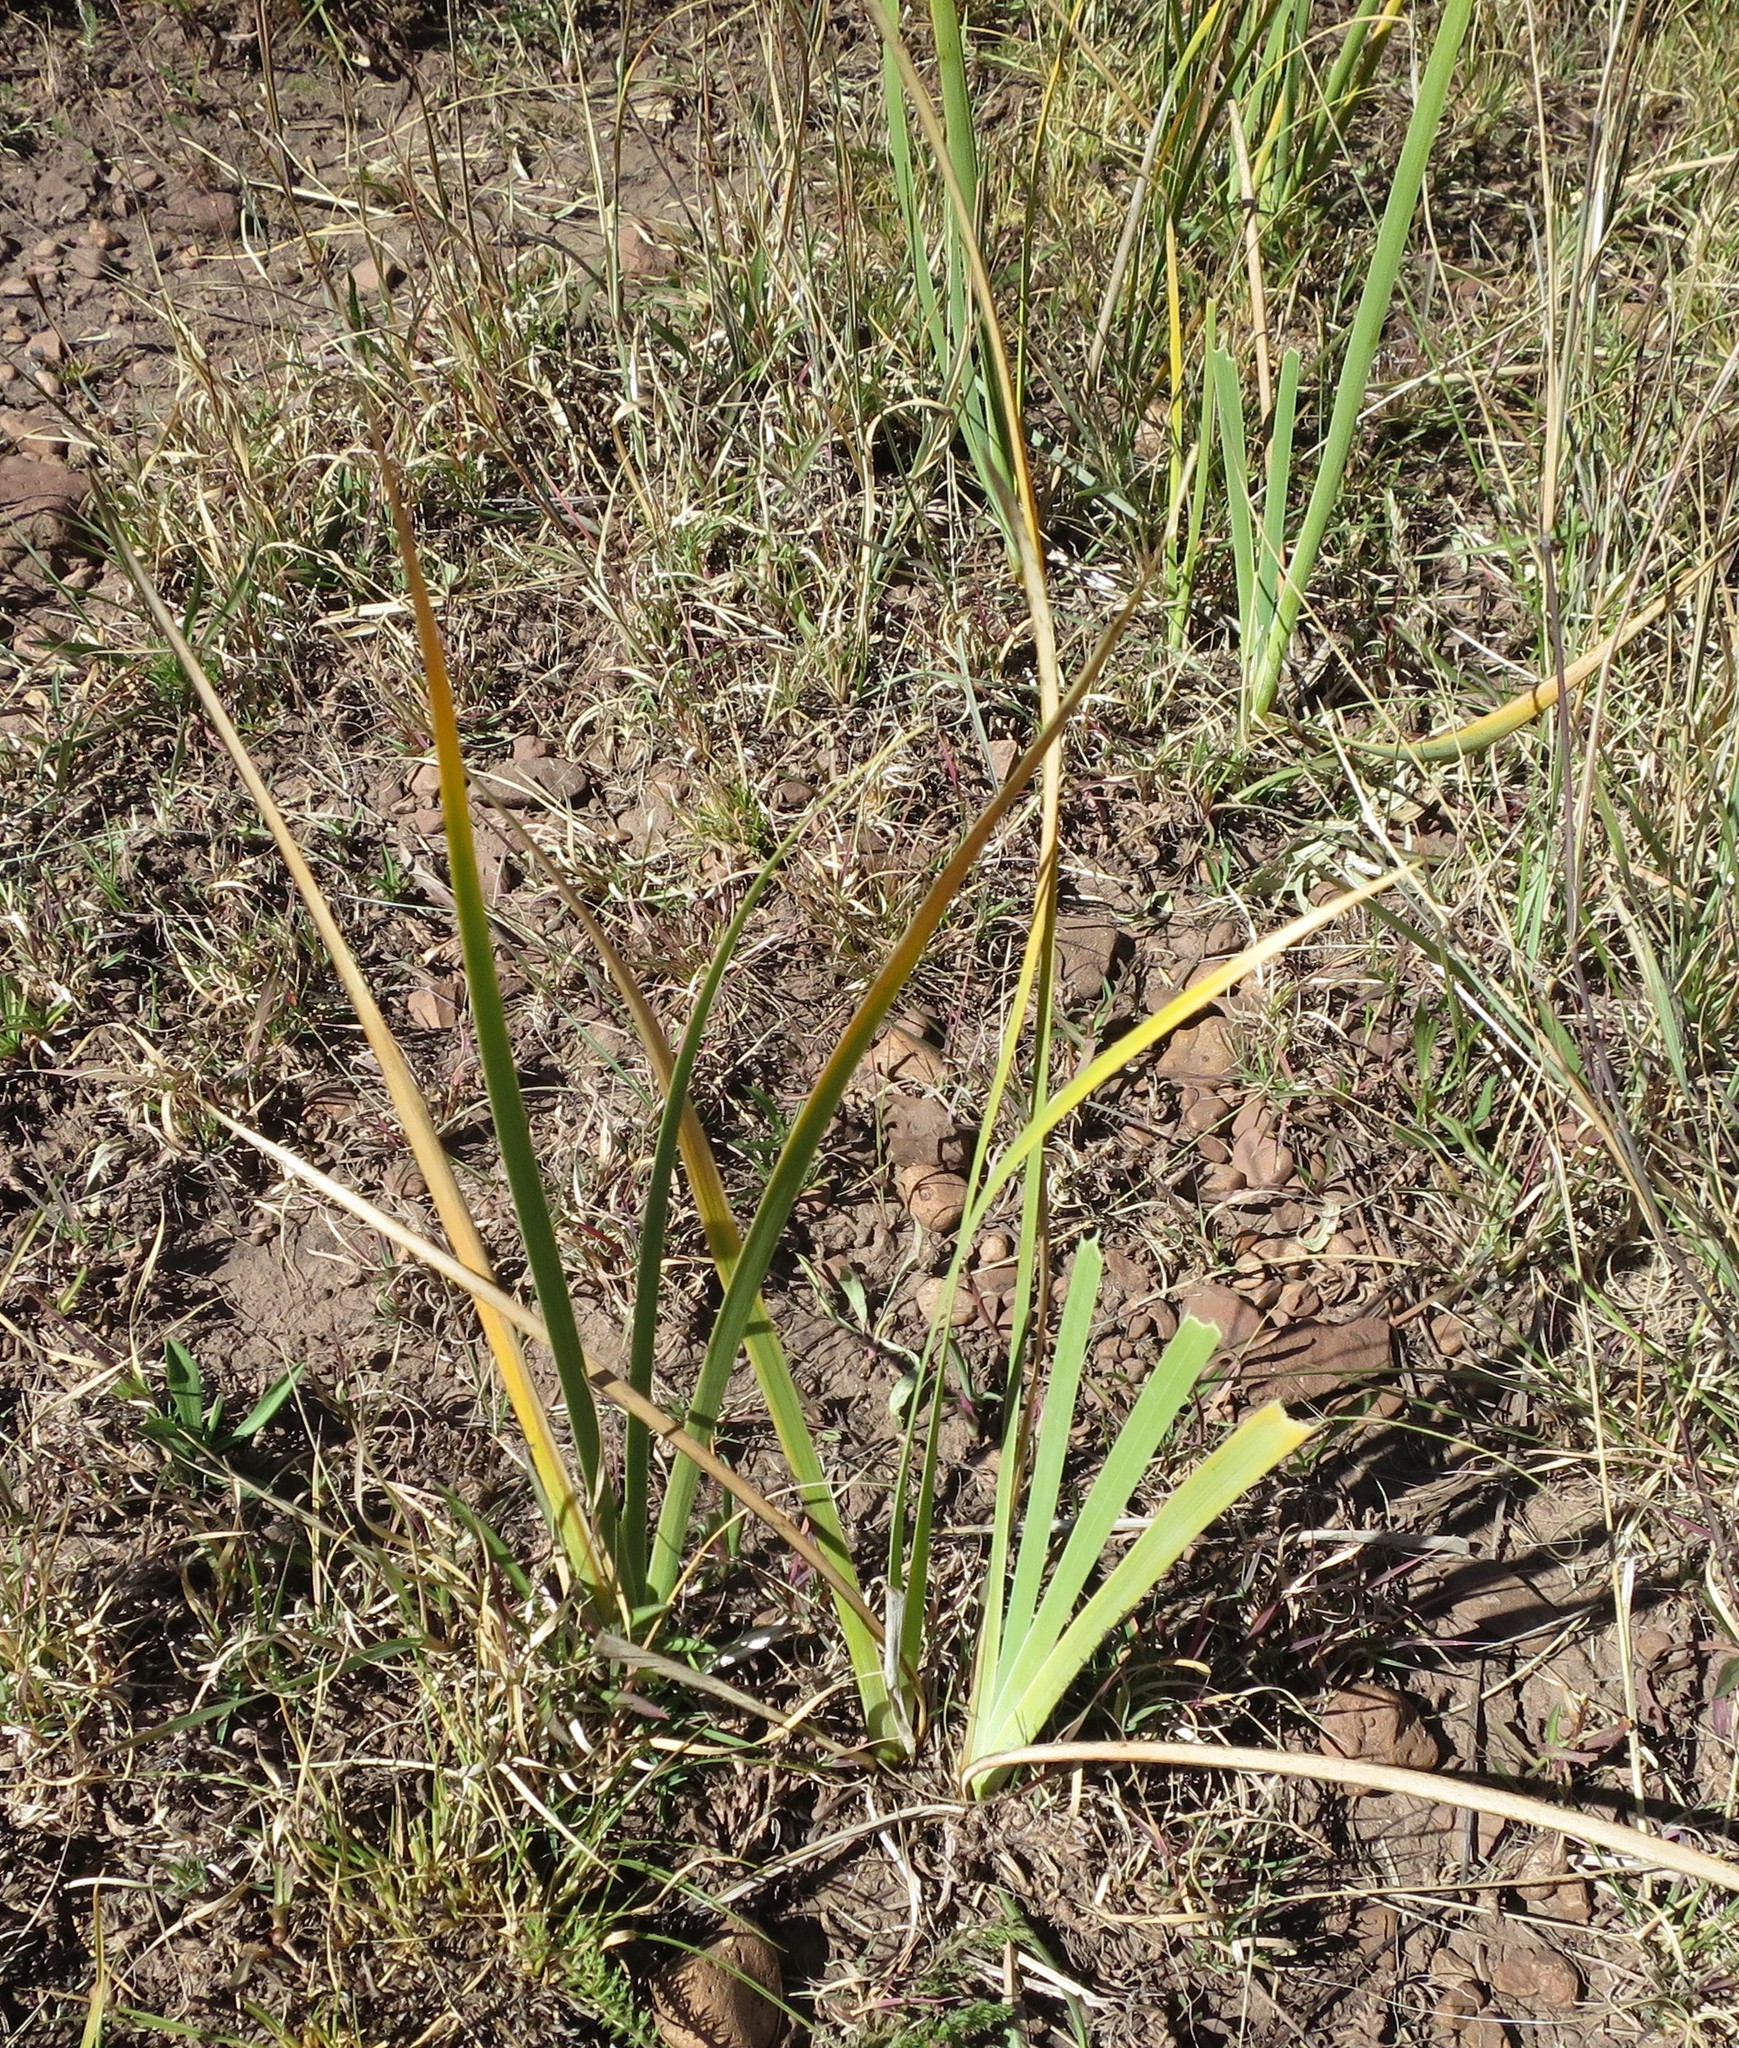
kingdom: Plantae
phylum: Tracheophyta
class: Liliopsida
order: Asparagales
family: Iridaceae
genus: Iris
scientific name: Iris missouriensis
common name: Rocky mountain iris
